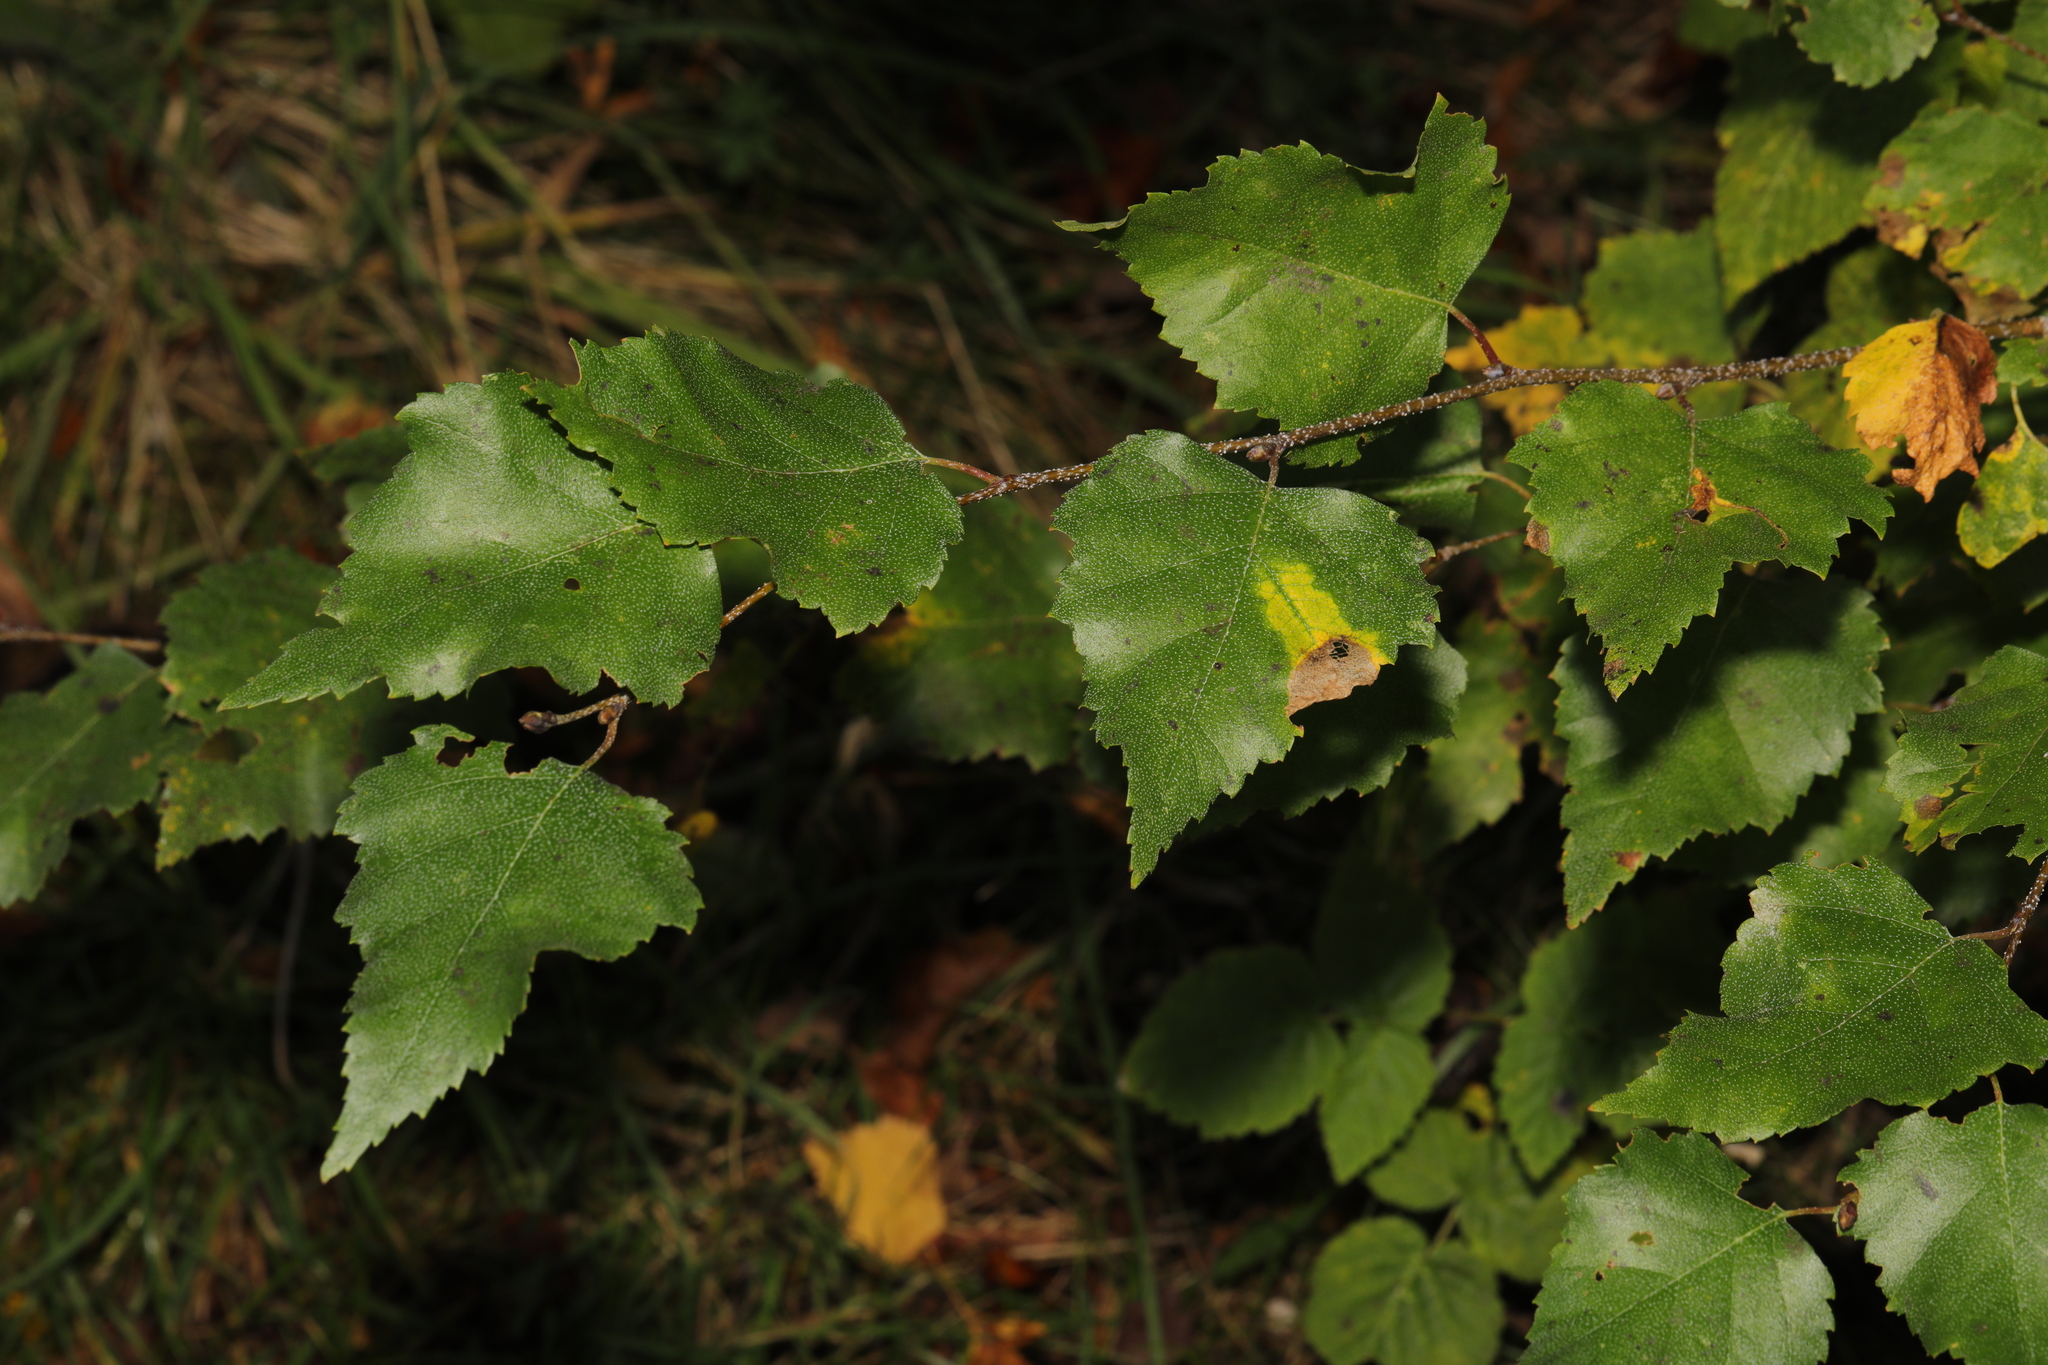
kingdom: Plantae
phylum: Tracheophyta
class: Magnoliopsida
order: Fagales
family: Betulaceae
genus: Betula
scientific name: Betula pendula
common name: Silver birch
